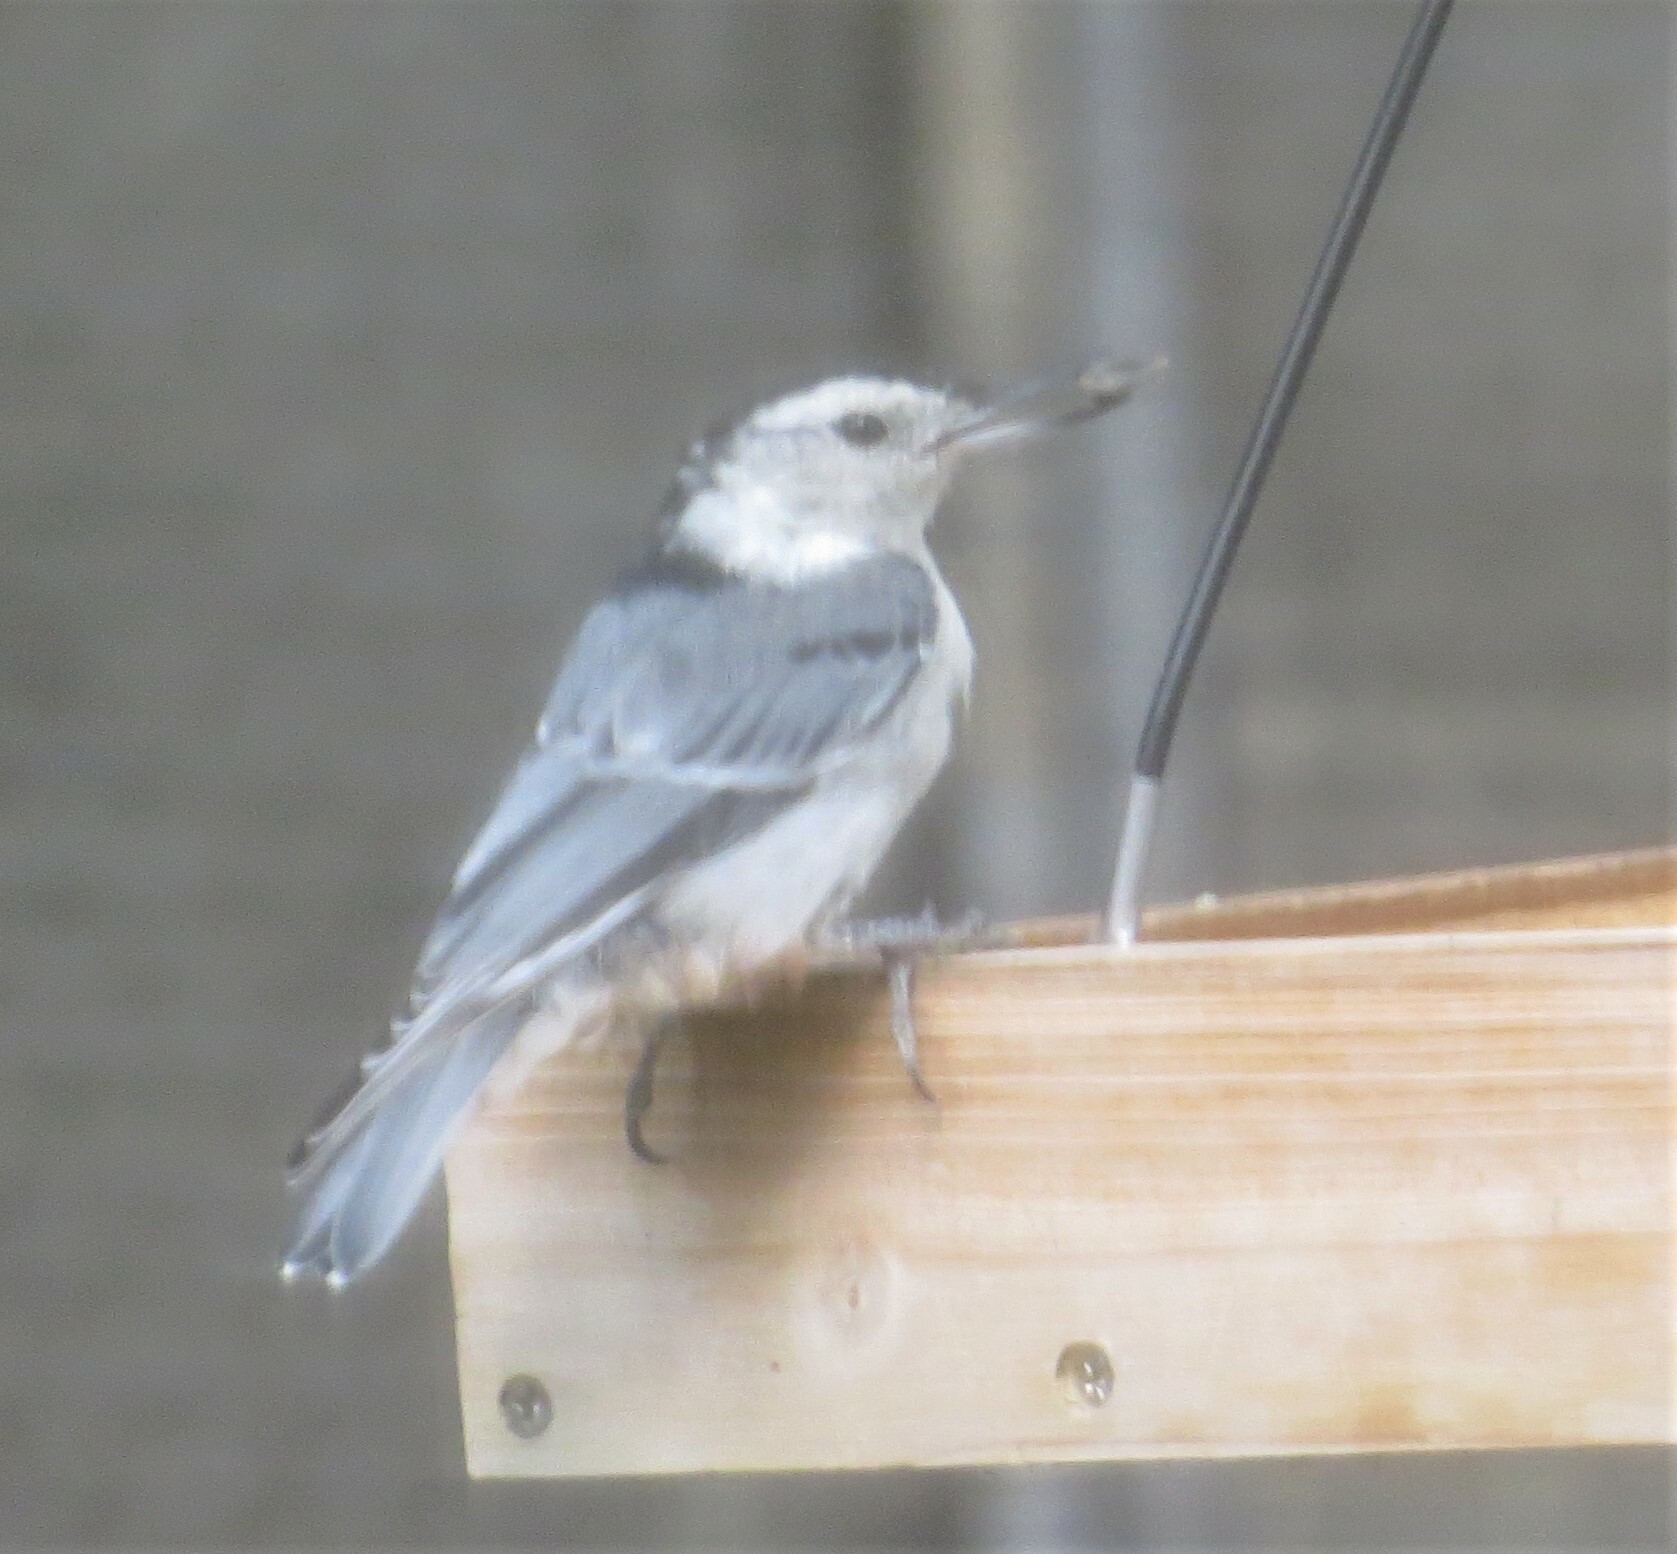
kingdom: Animalia
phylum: Chordata
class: Aves
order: Passeriformes
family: Sittidae
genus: Sitta
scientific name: Sitta carolinensis
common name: White-breasted nuthatch
